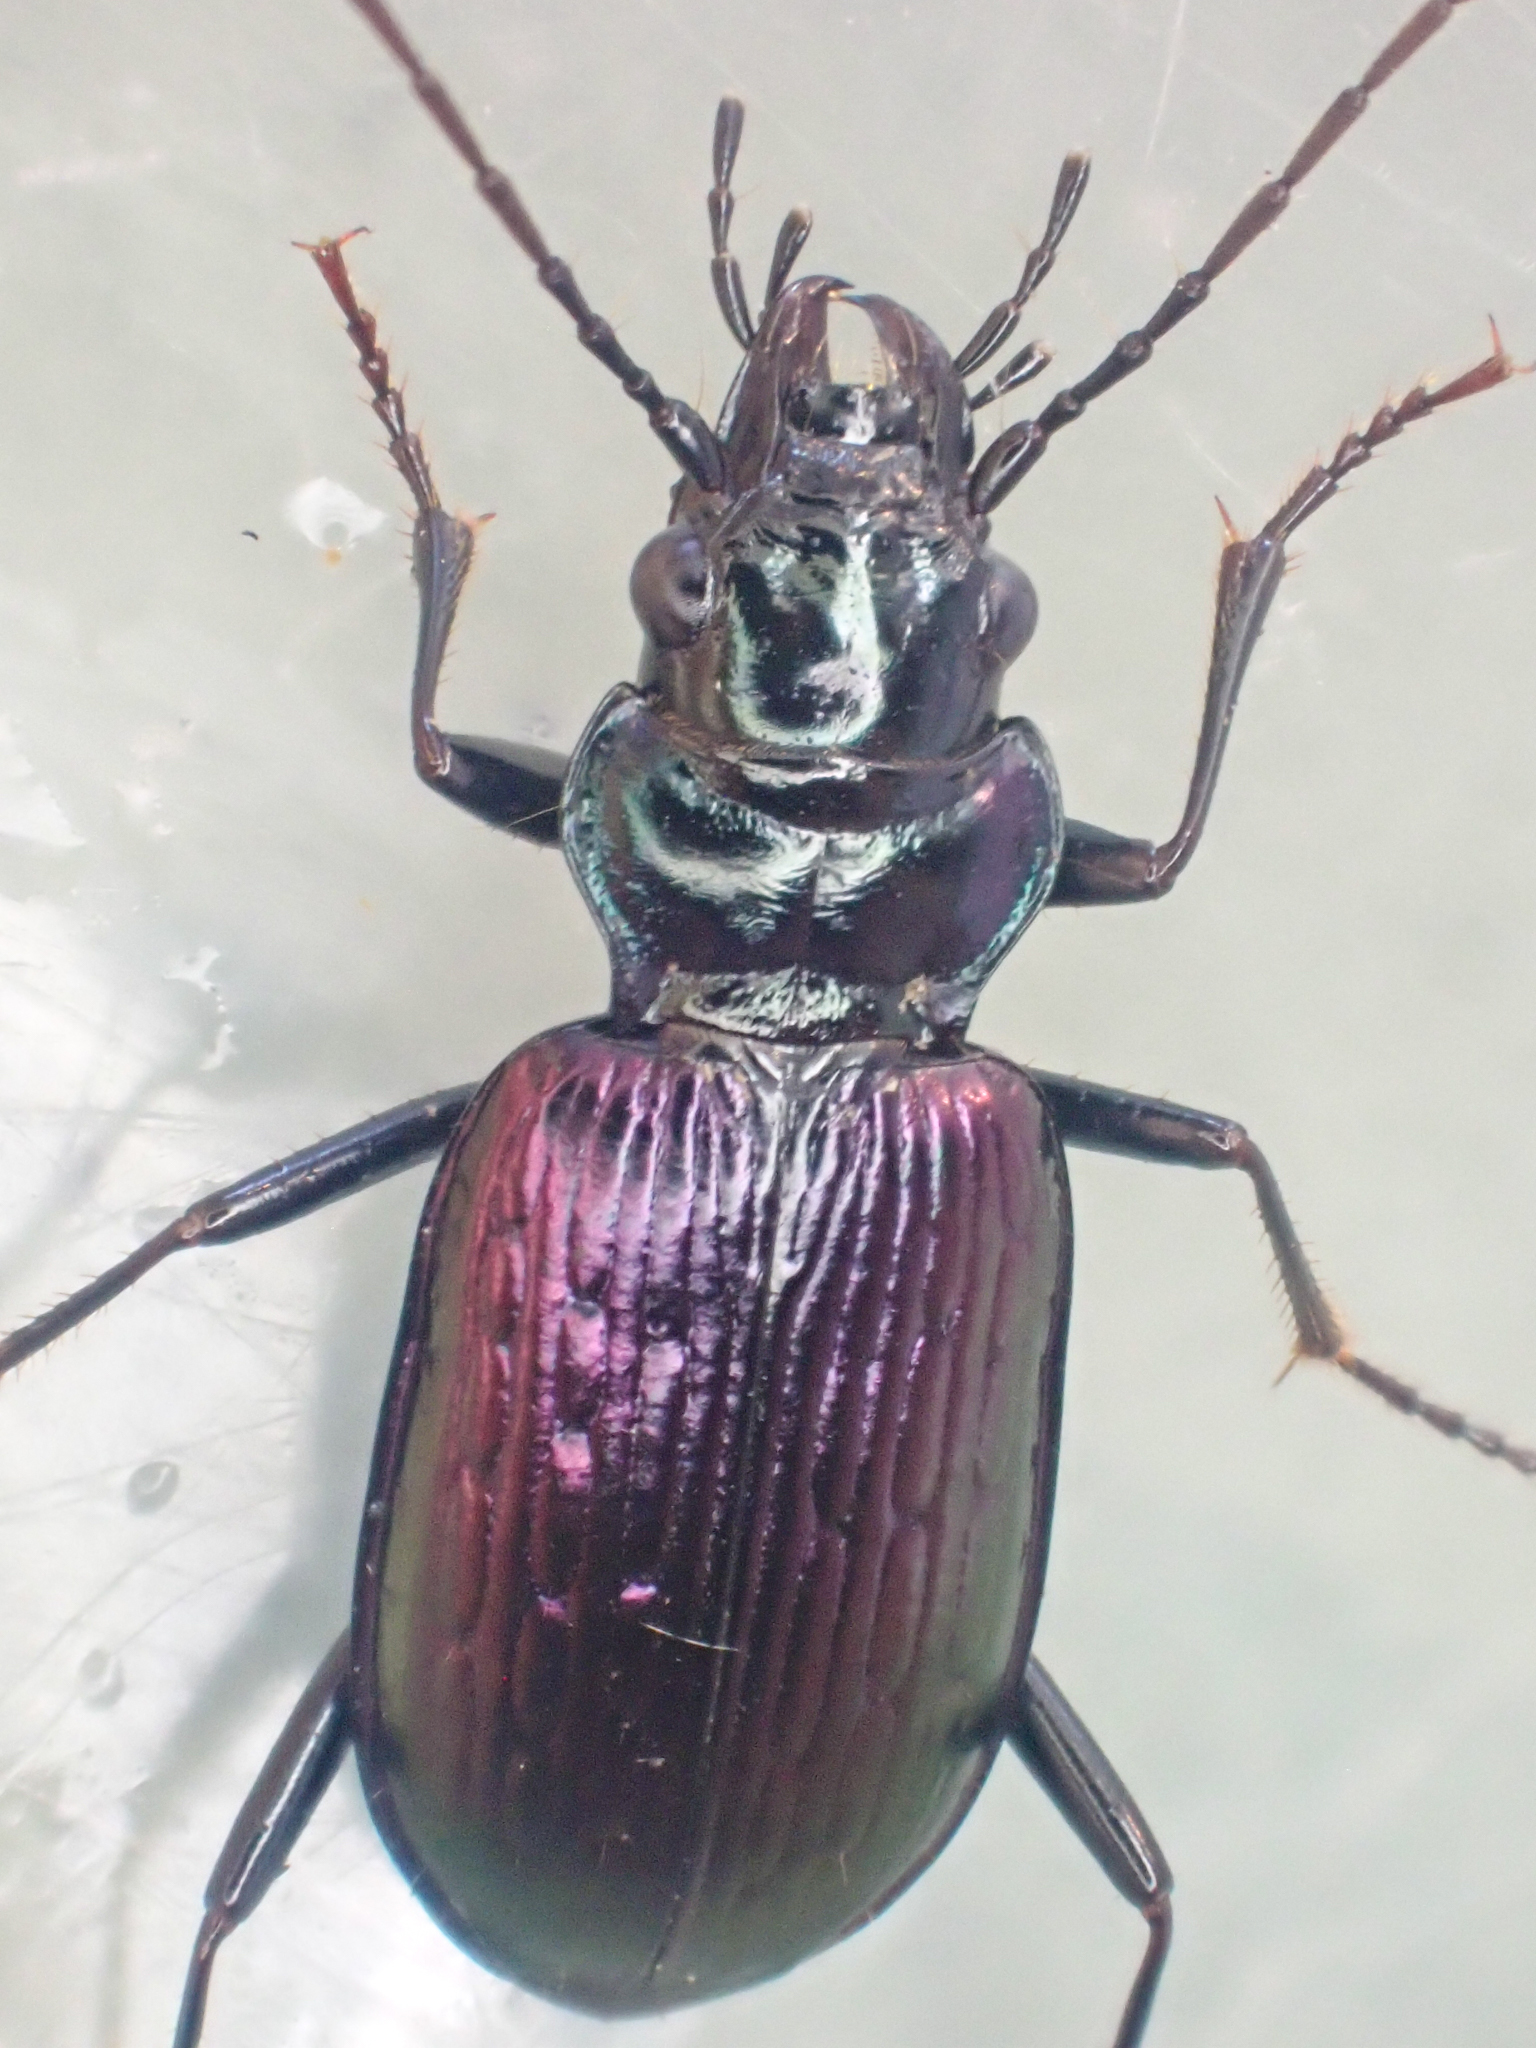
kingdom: Animalia
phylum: Arthropoda
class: Insecta
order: Coleoptera
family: Carabidae
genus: Nebria
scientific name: Nebria metallica
